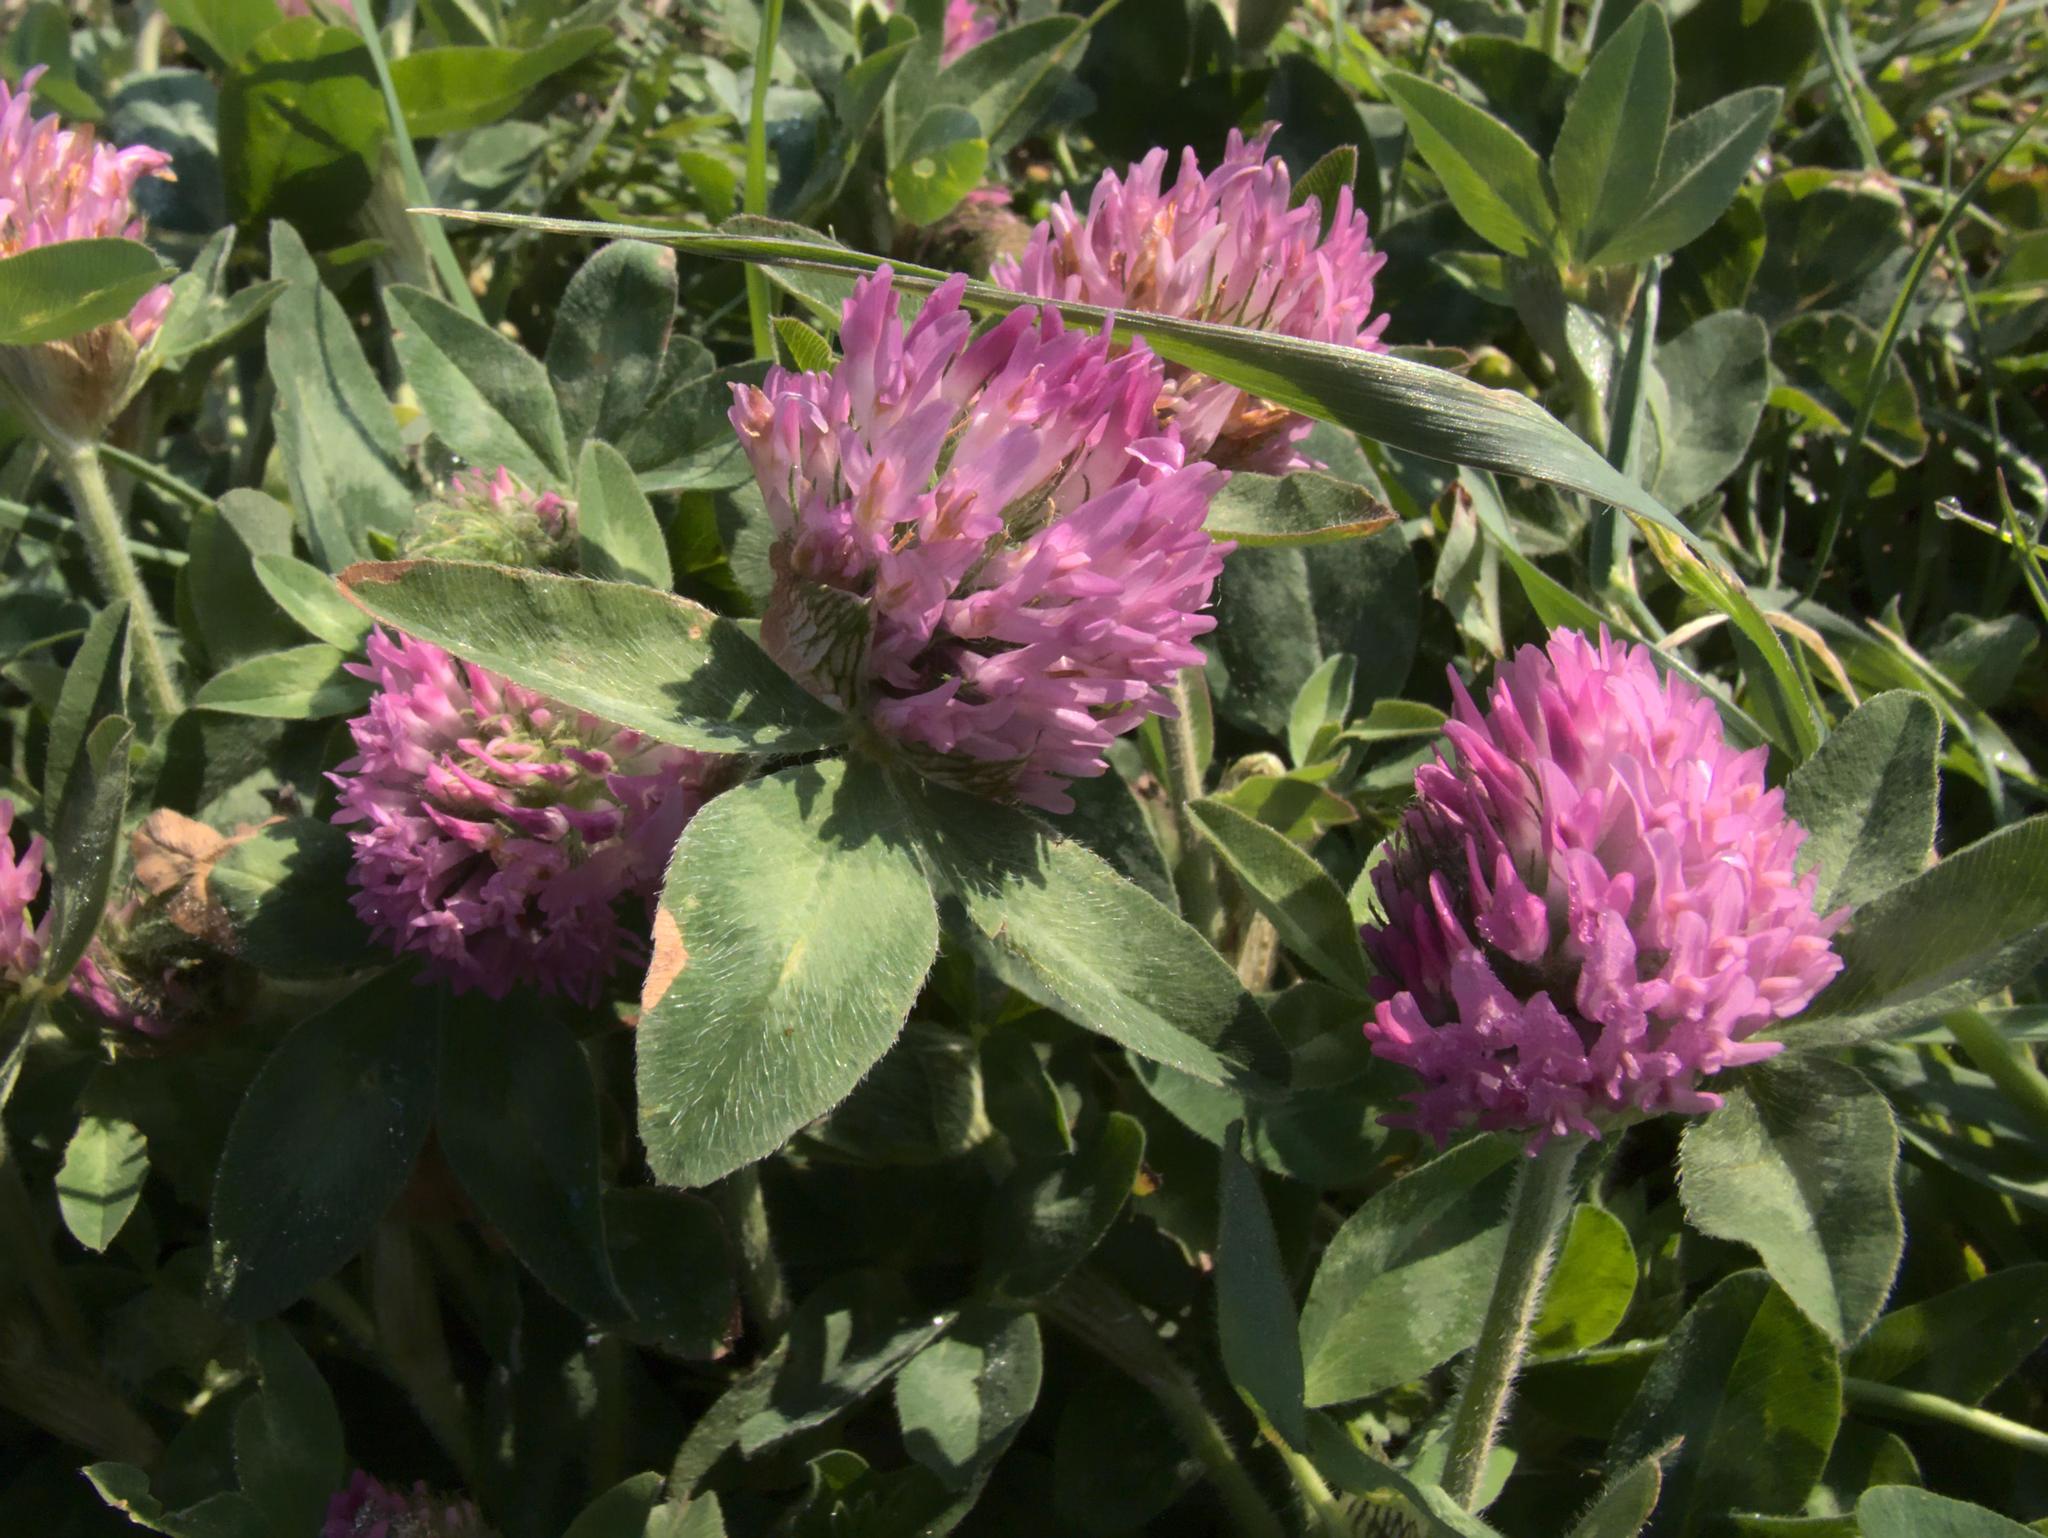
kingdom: Plantae
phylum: Tracheophyta
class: Magnoliopsida
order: Fabales
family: Fabaceae
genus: Trifolium
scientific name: Trifolium pratense
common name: Red clover
